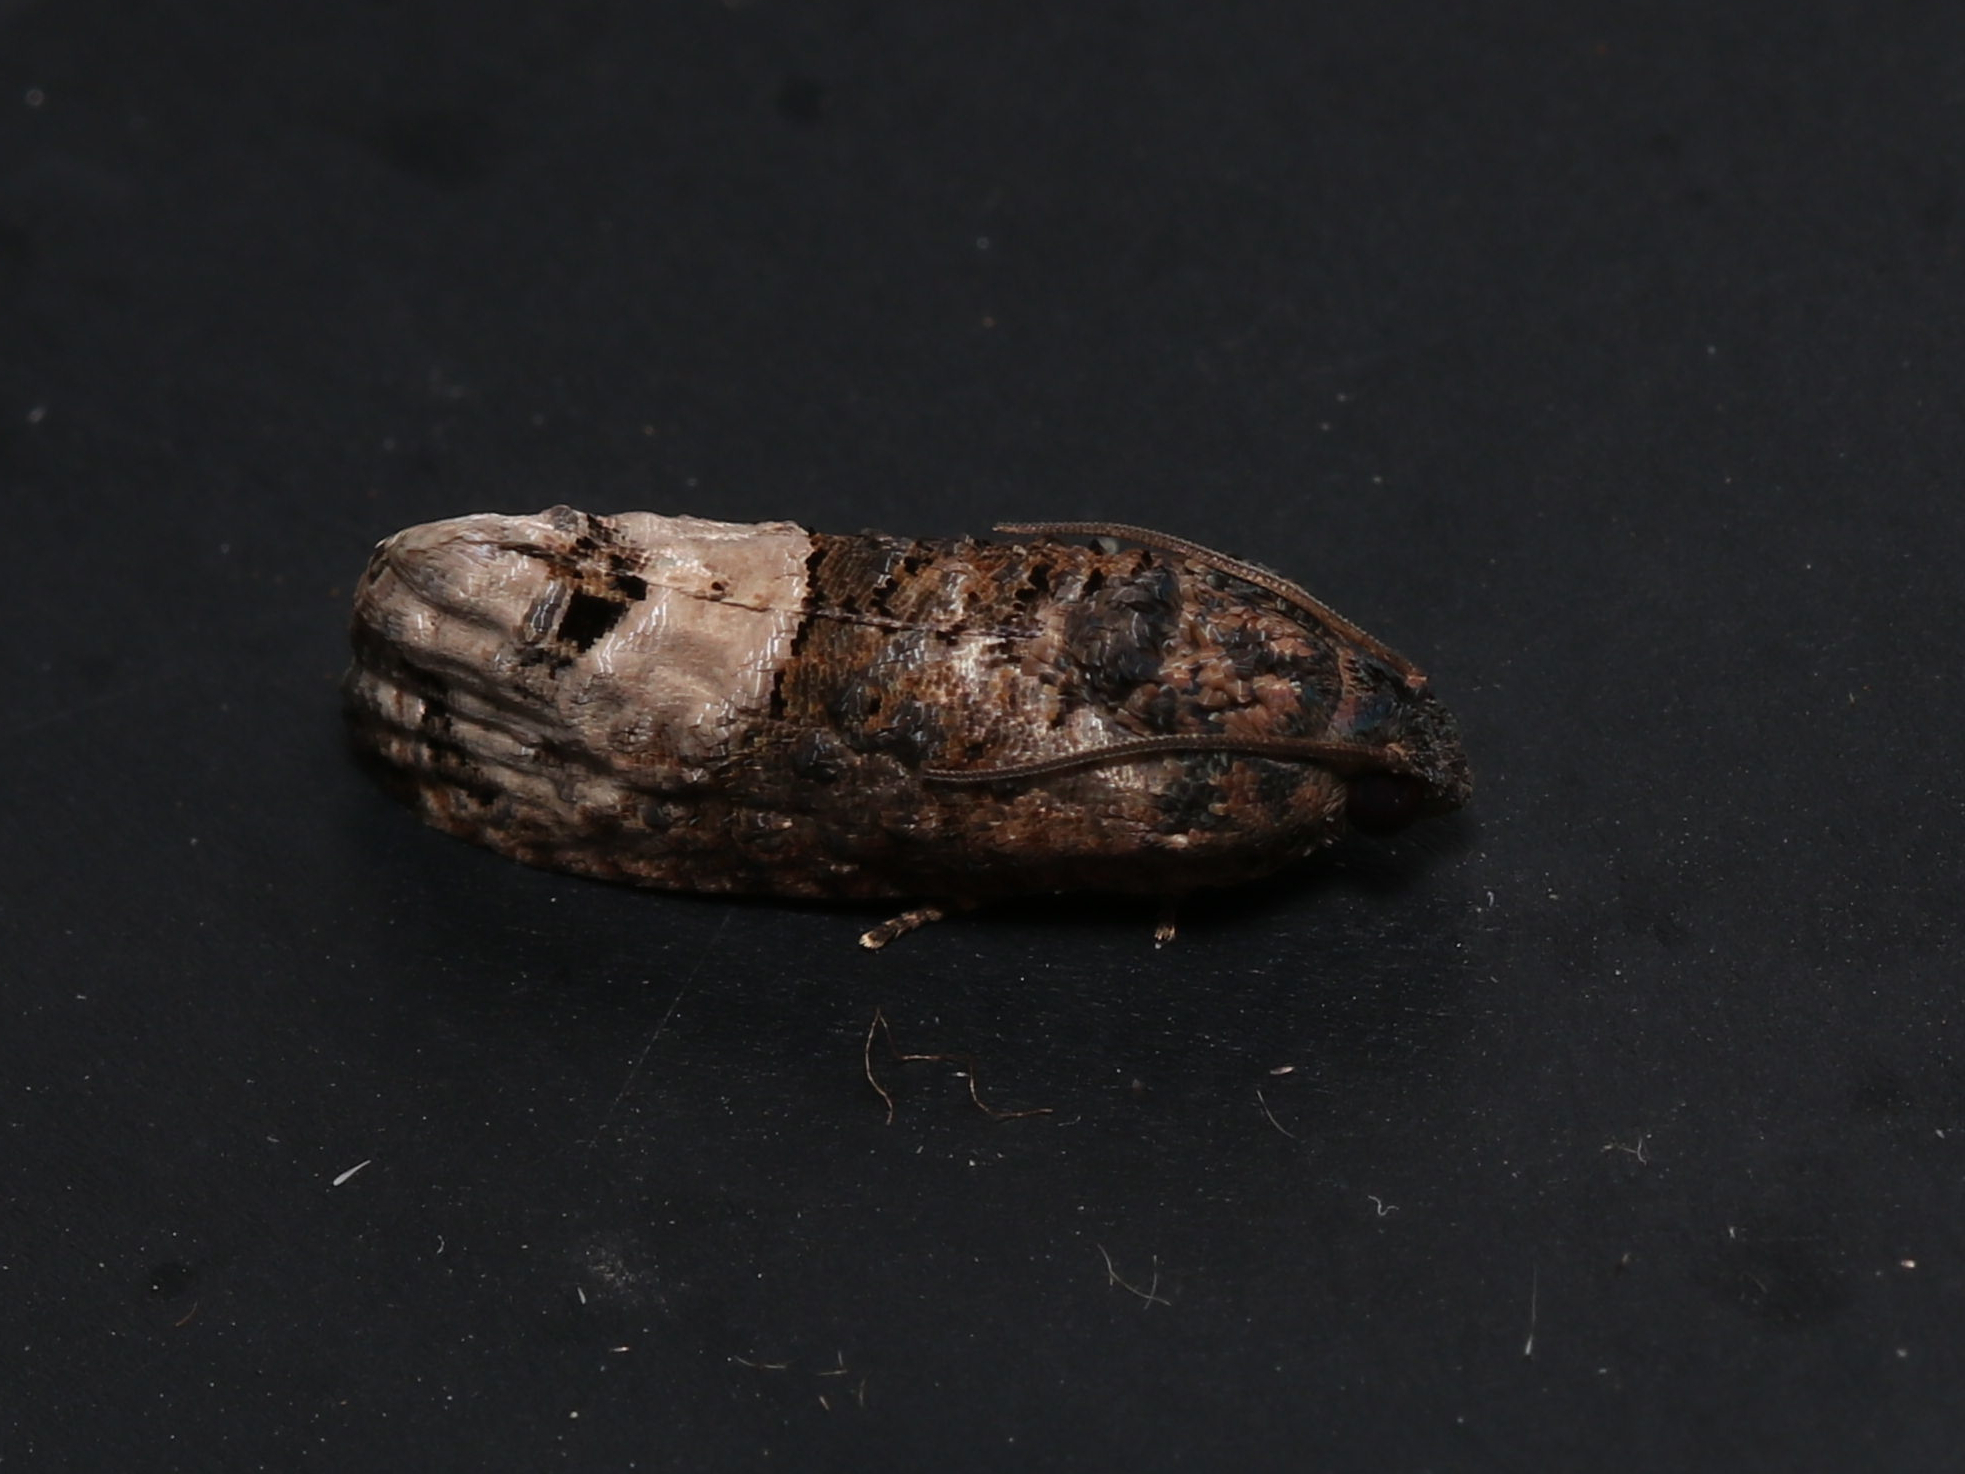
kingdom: Animalia
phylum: Arthropoda
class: Insecta
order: Lepidoptera
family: Tortricidae
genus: Ecdytolopha
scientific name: Ecdytolopha insiticiana
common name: Locust twig borer moth
